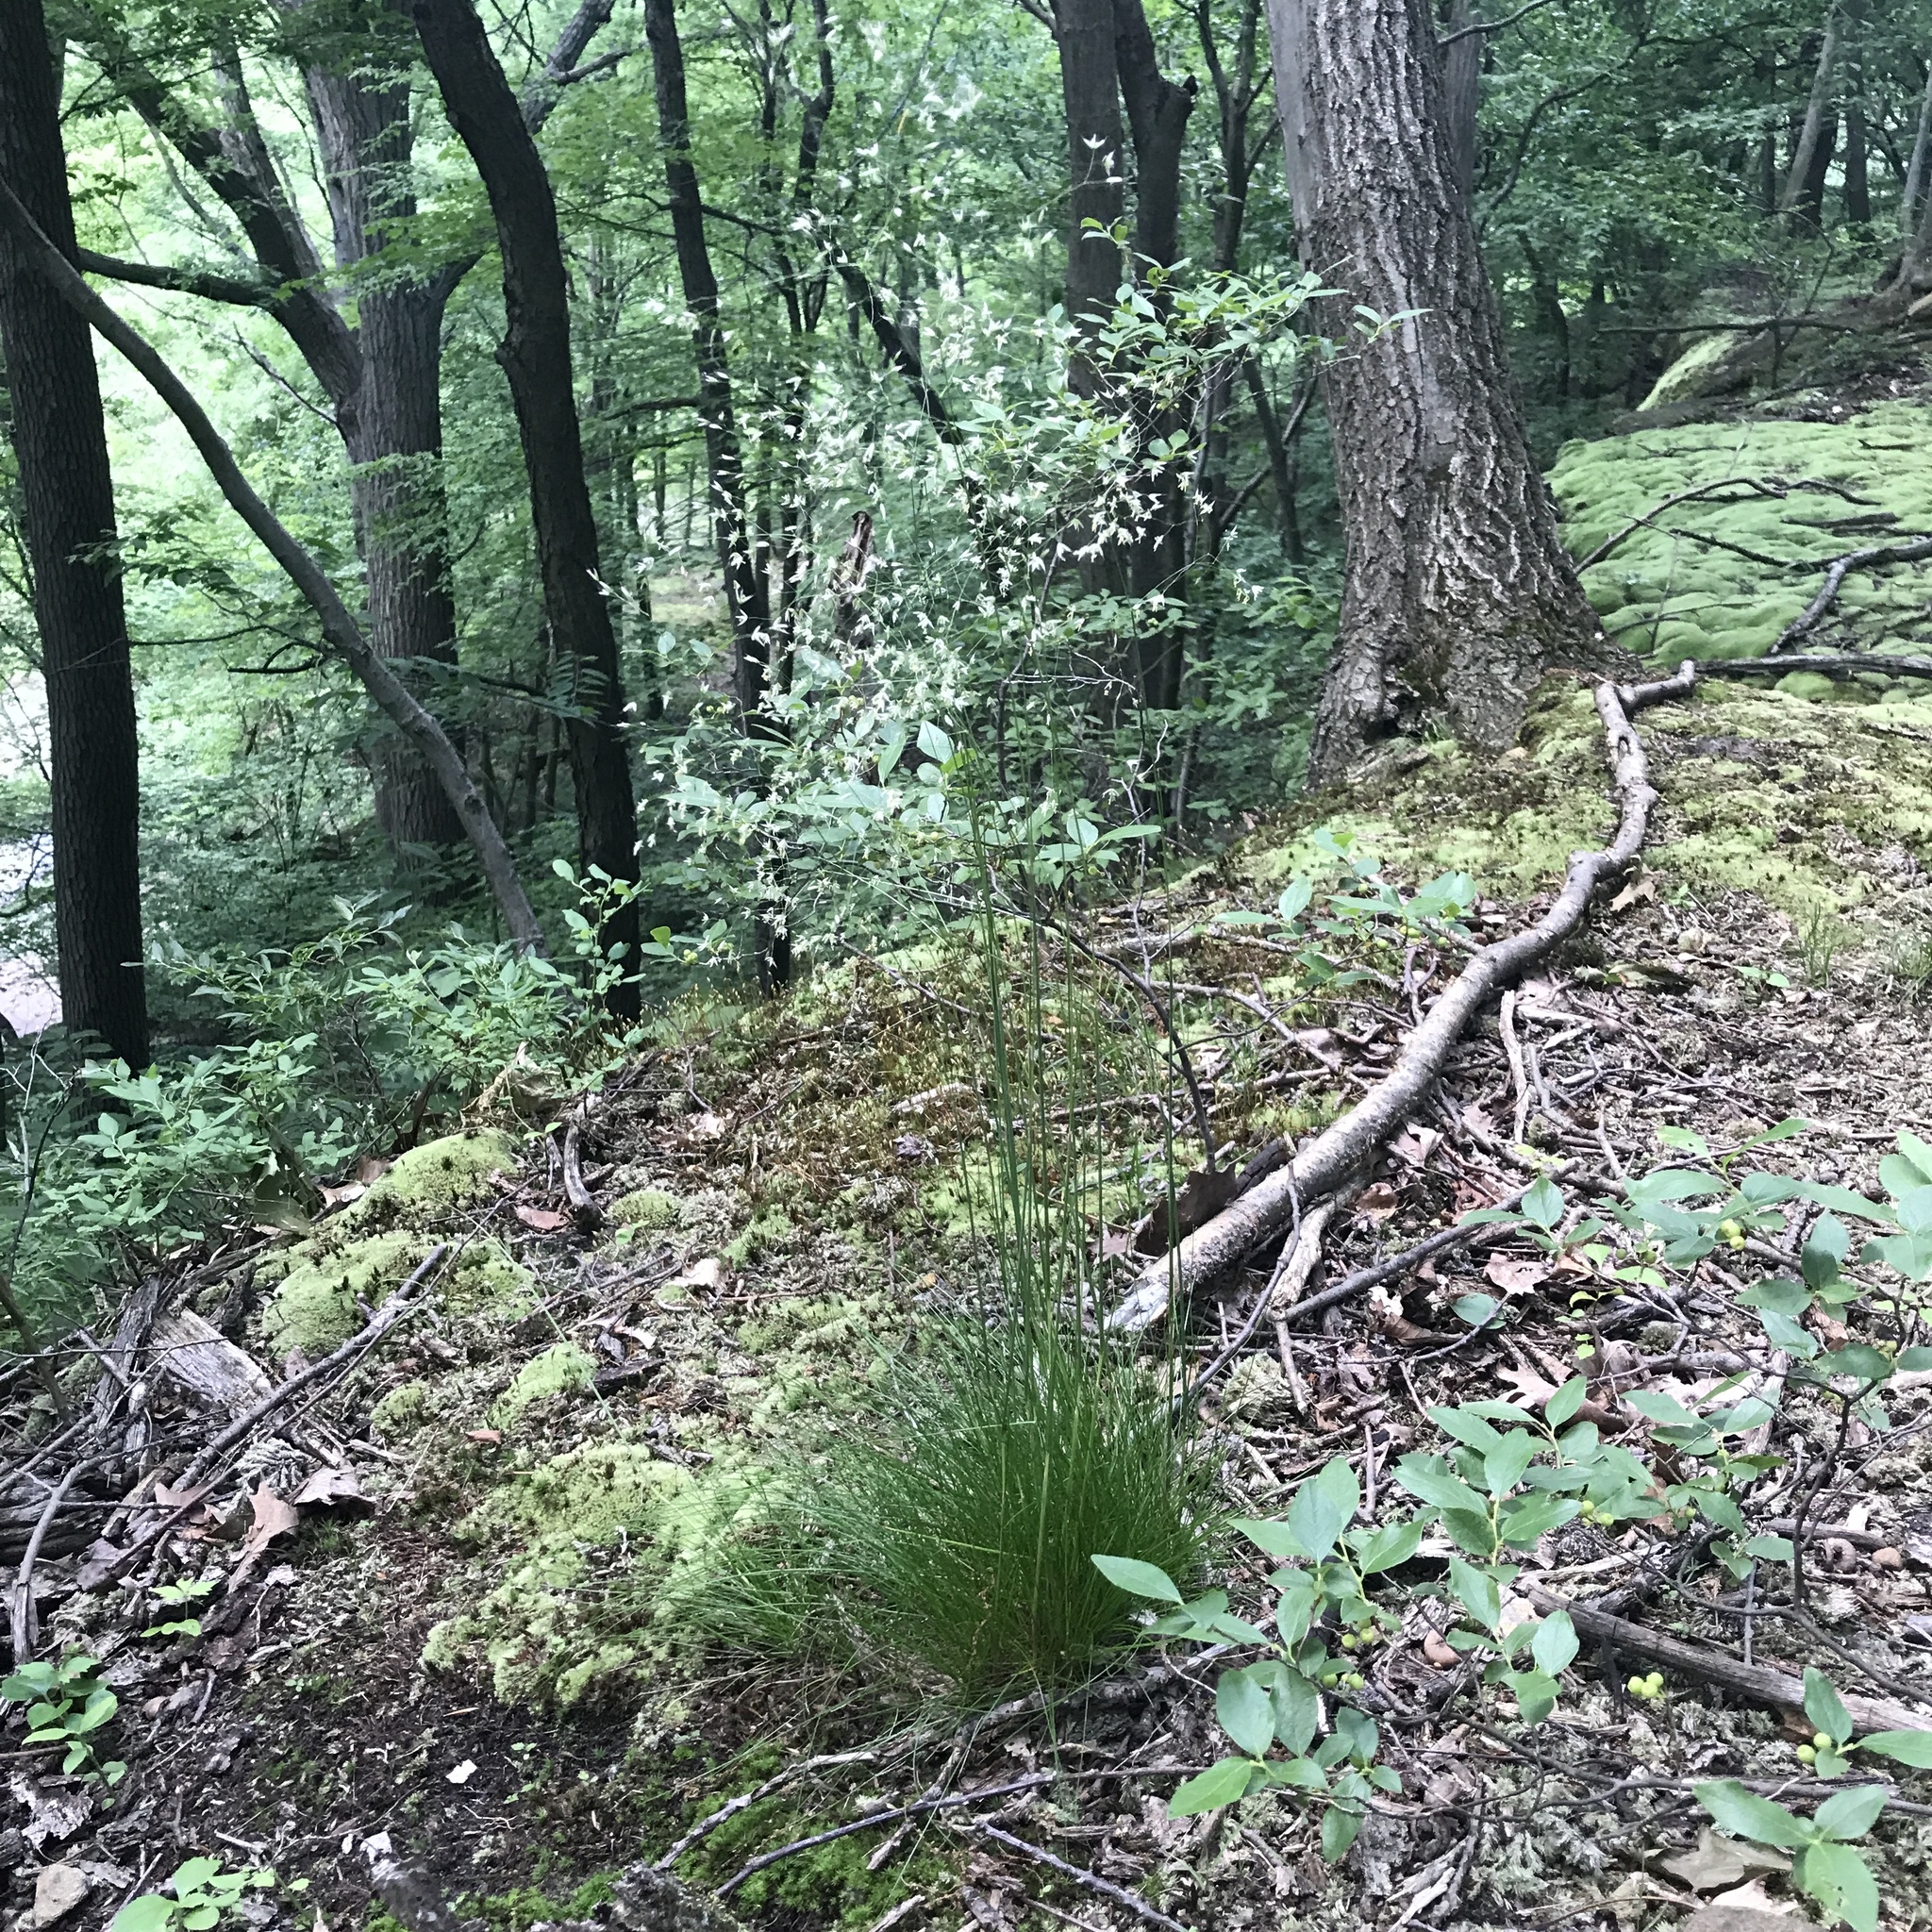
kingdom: Plantae
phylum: Tracheophyta
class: Liliopsida
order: Poales
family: Poaceae
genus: Avenella
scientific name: Avenella flexuosa
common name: Wavy hairgrass
